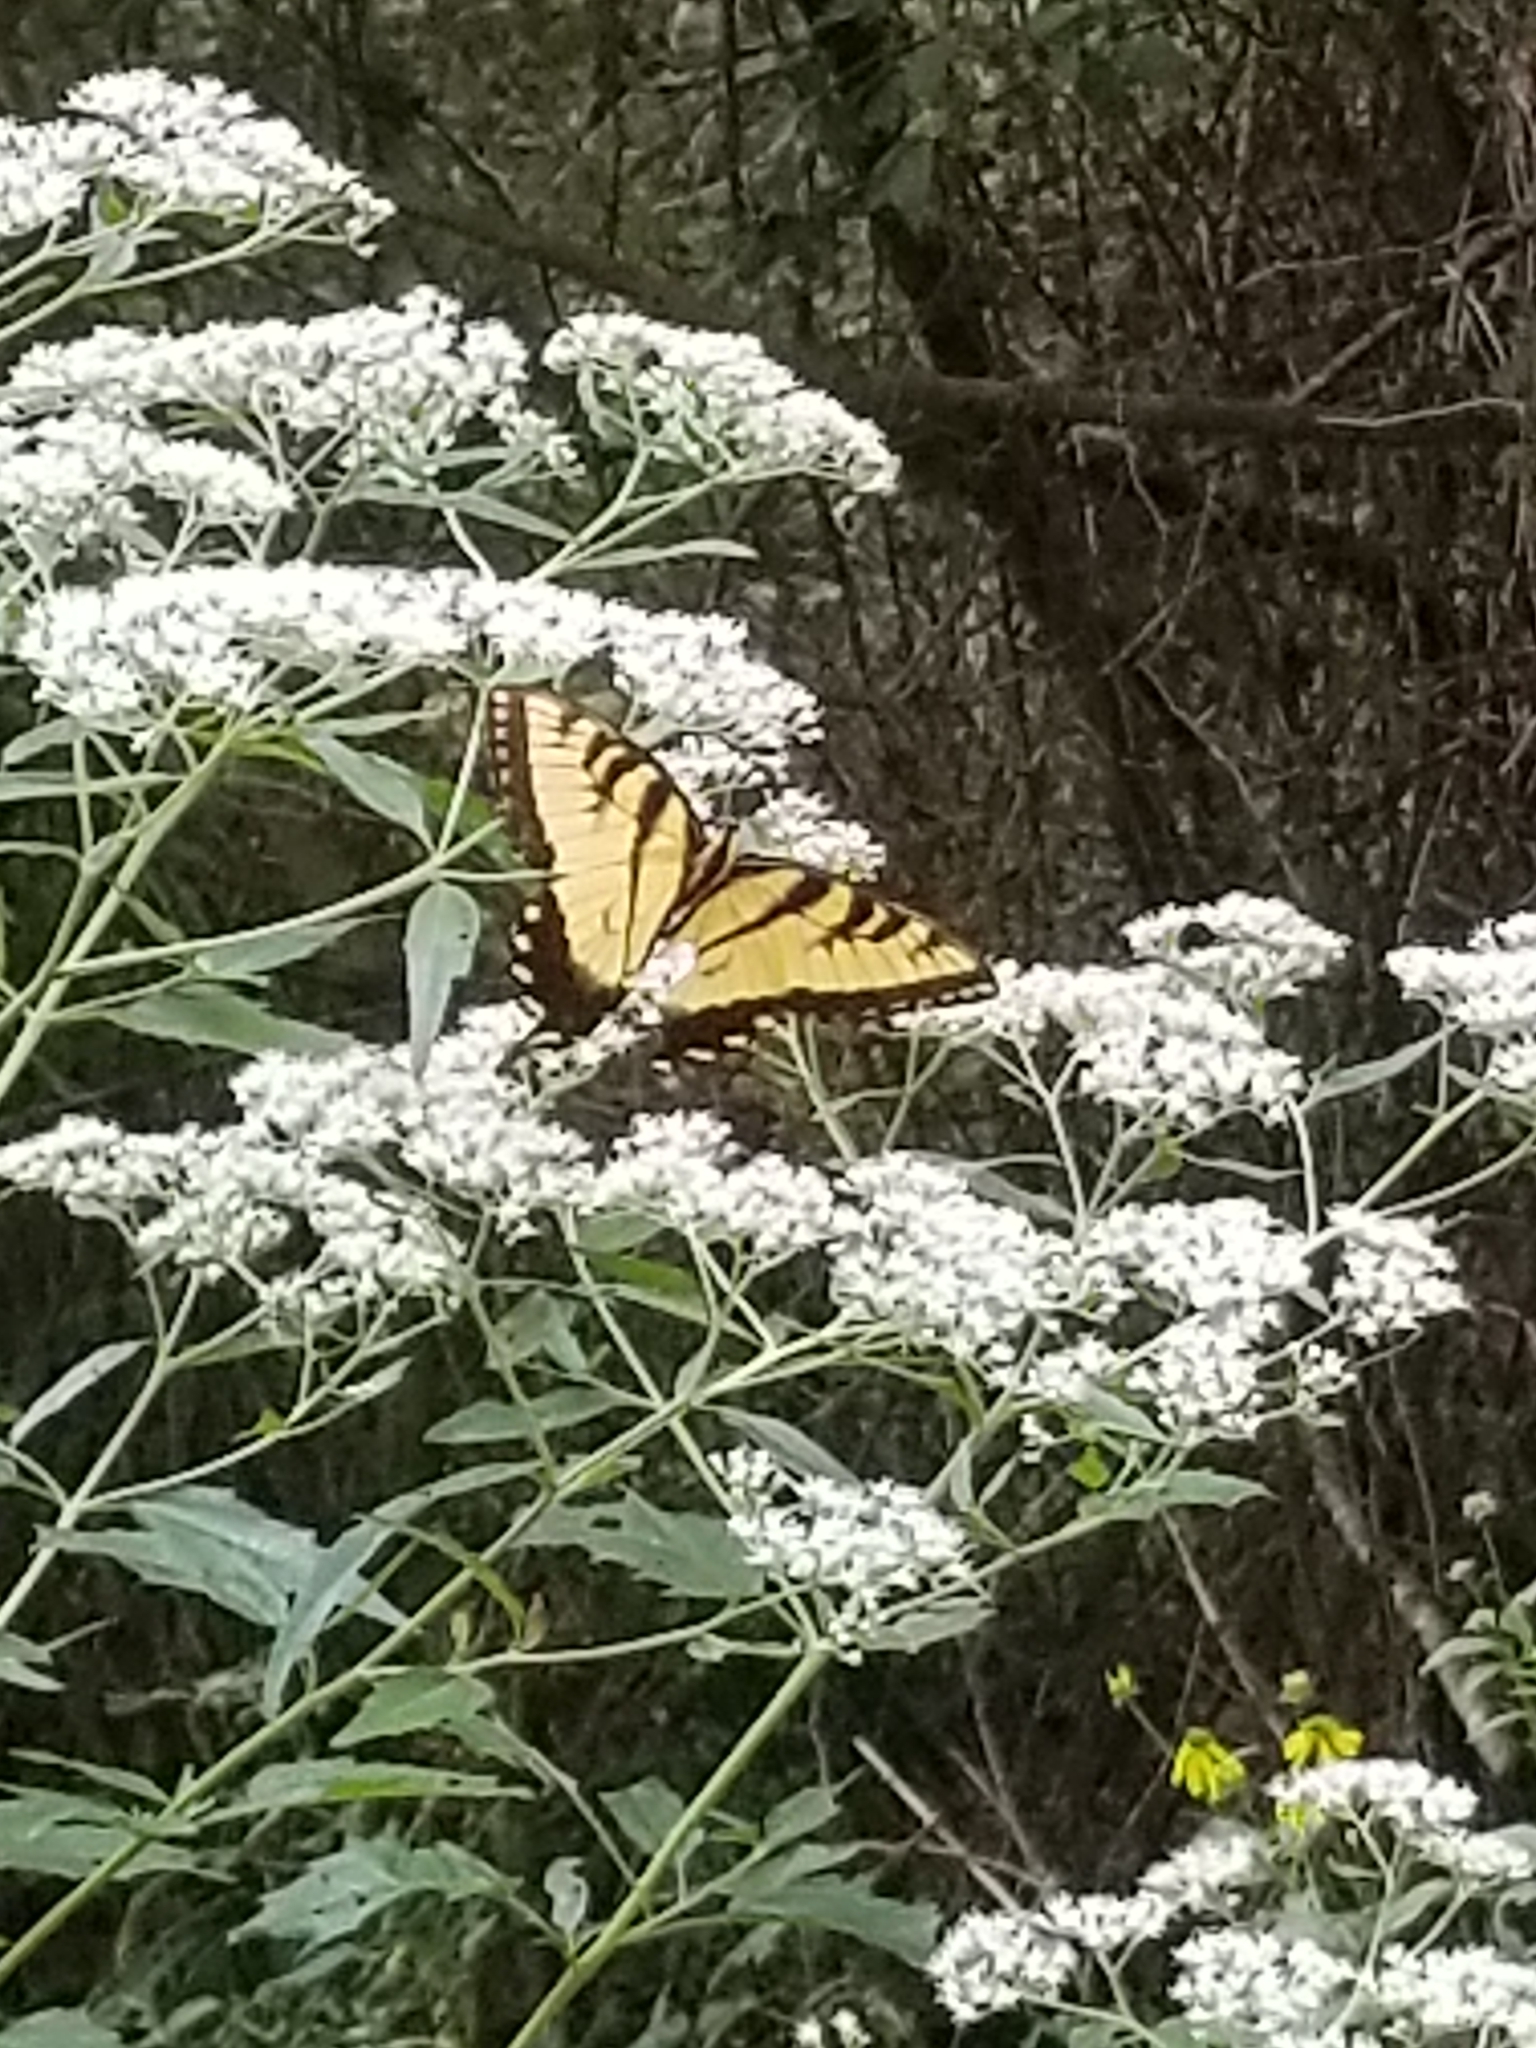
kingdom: Animalia
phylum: Arthropoda
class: Insecta
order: Lepidoptera
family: Papilionidae
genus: Papilio
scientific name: Papilio glaucus
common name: Tiger swallowtail
